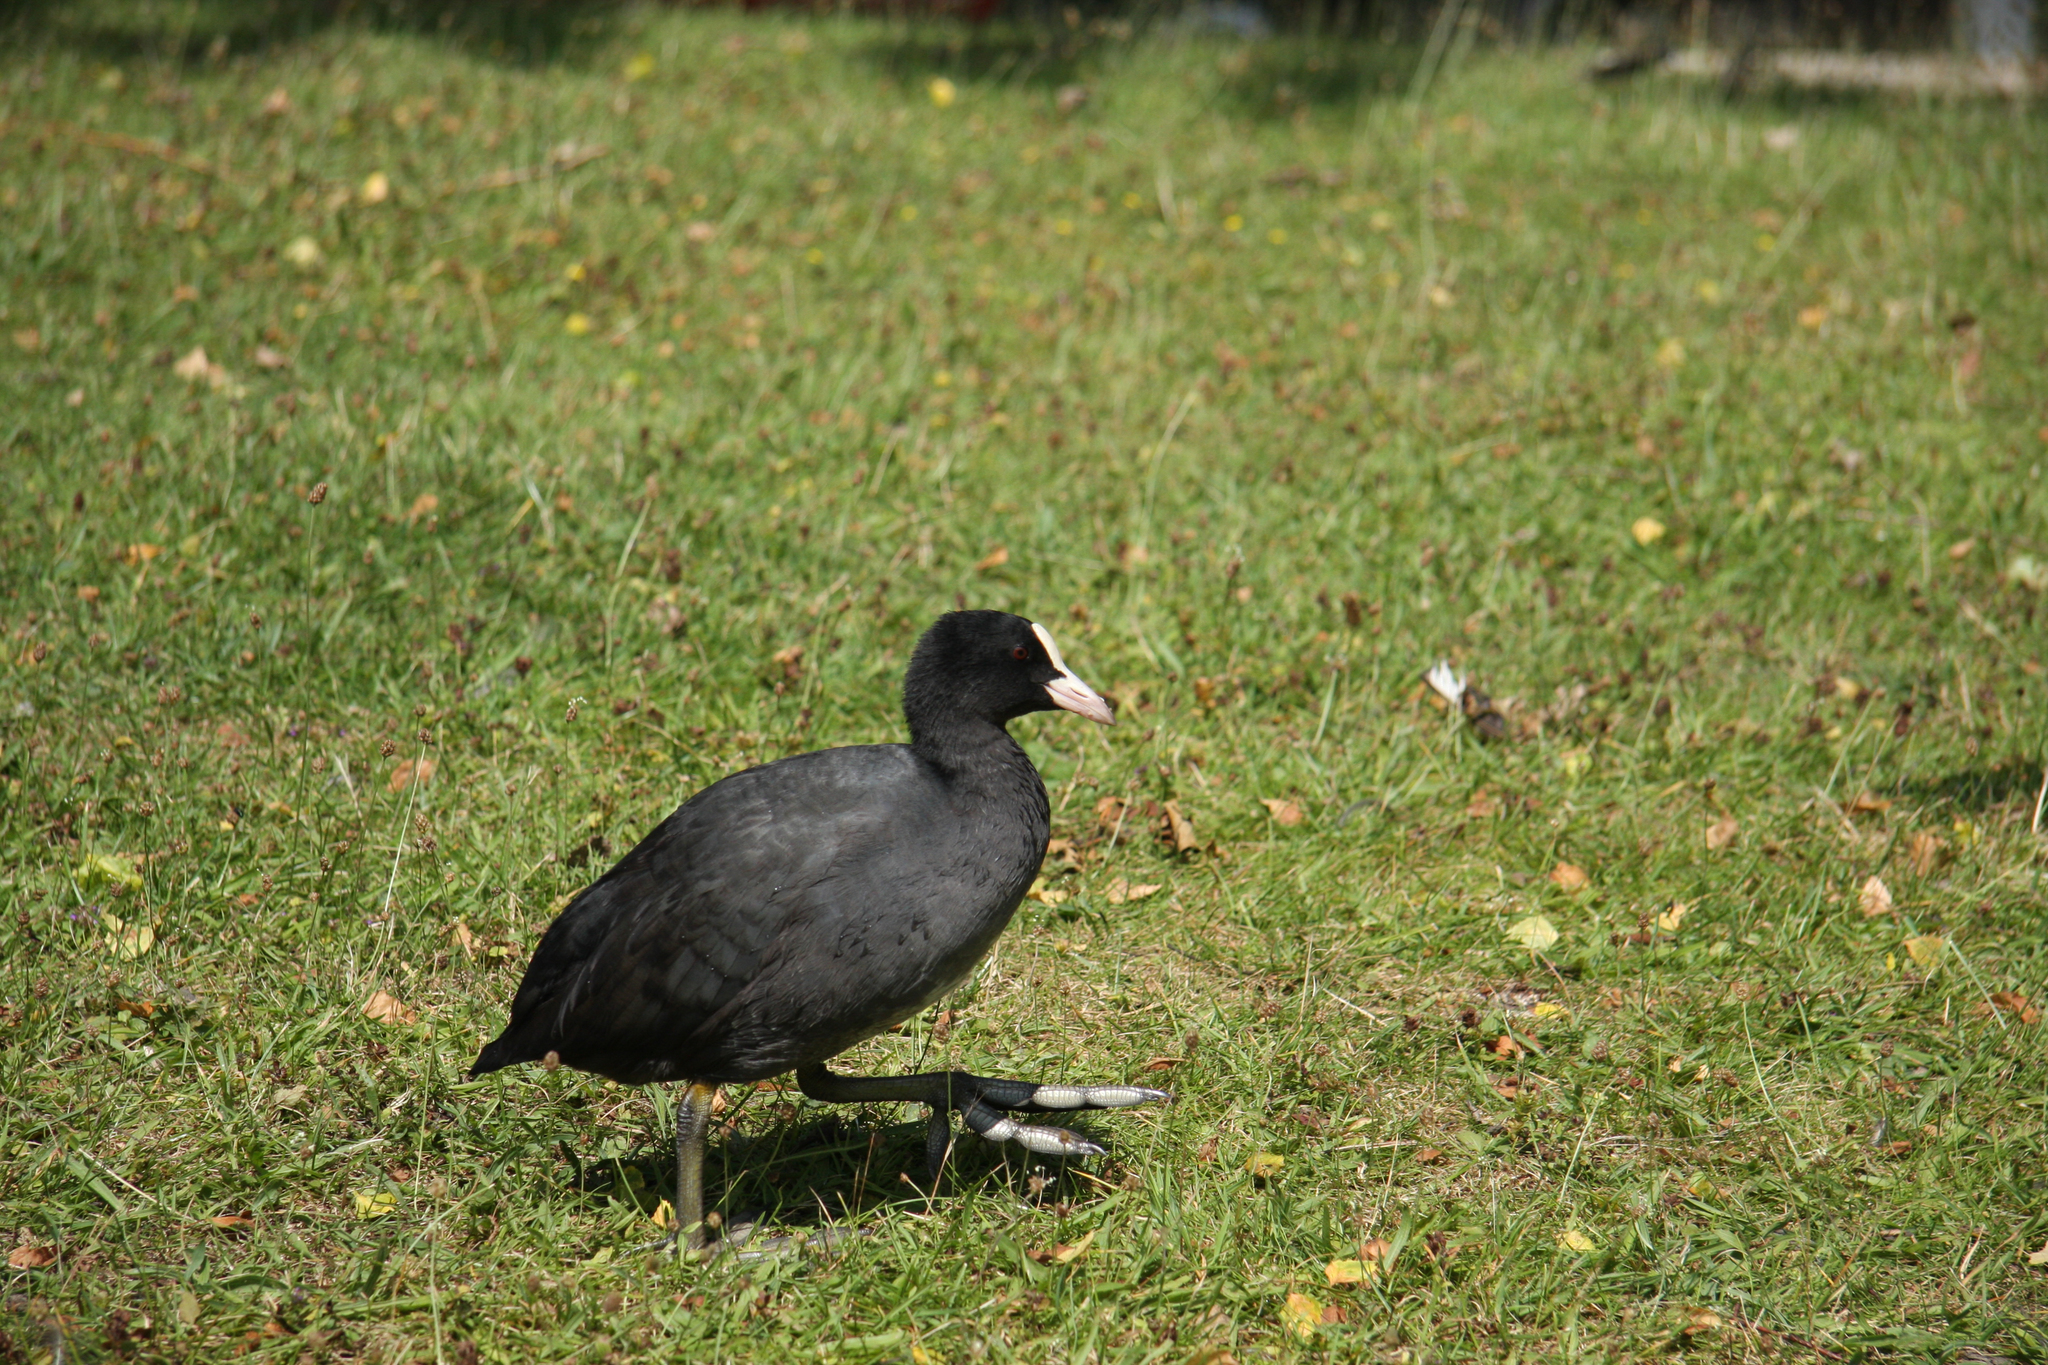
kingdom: Animalia
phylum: Chordata
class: Aves
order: Gruiformes
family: Rallidae
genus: Fulica
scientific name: Fulica atra
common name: Eurasian coot
